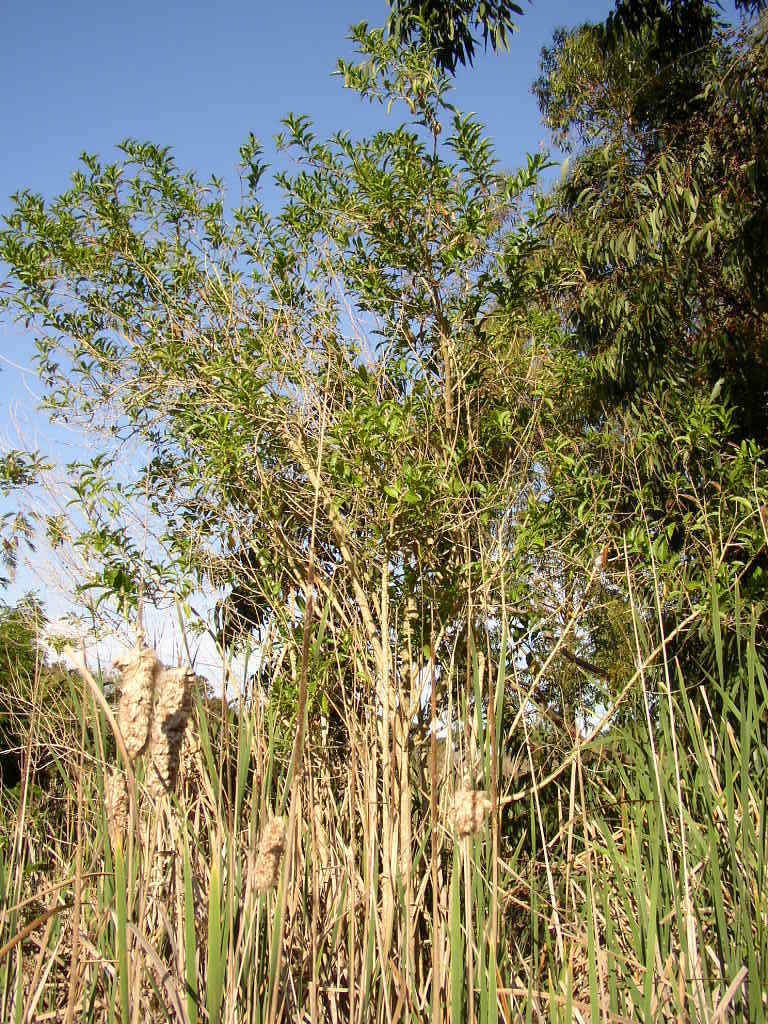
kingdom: Plantae
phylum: Tracheophyta
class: Magnoliopsida
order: Solanales
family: Solanaceae
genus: Cestrum
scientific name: Cestrum laevigatum
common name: Inkberry
